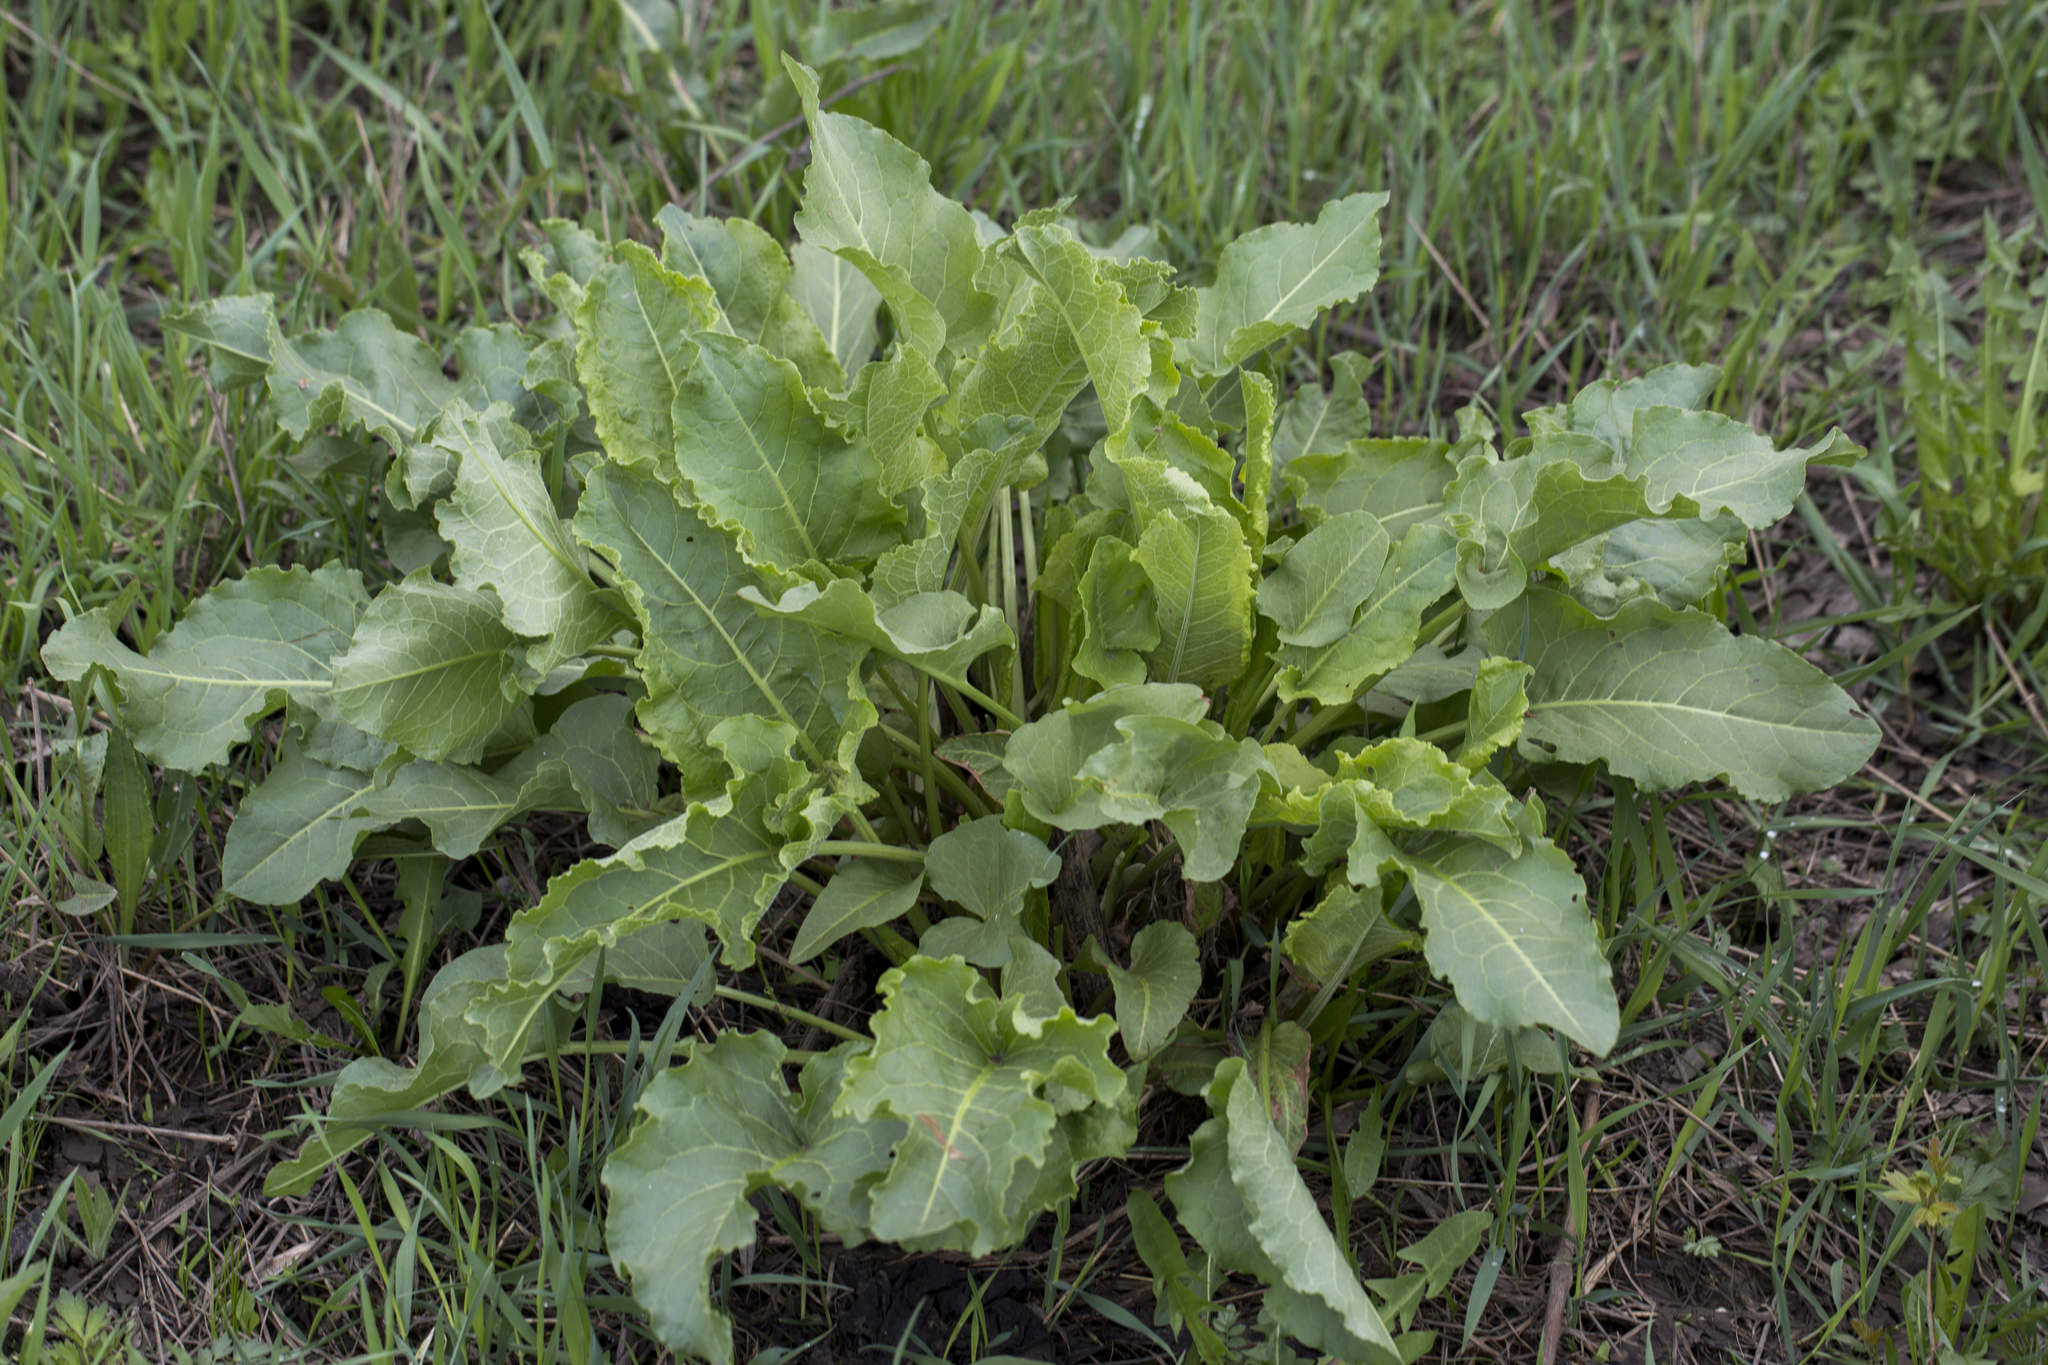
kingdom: Plantae
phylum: Tracheophyta
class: Magnoliopsida
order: Caryophyllales
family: Polygonaceae
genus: Rumex
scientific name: Rumex confertus
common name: Russian dock
